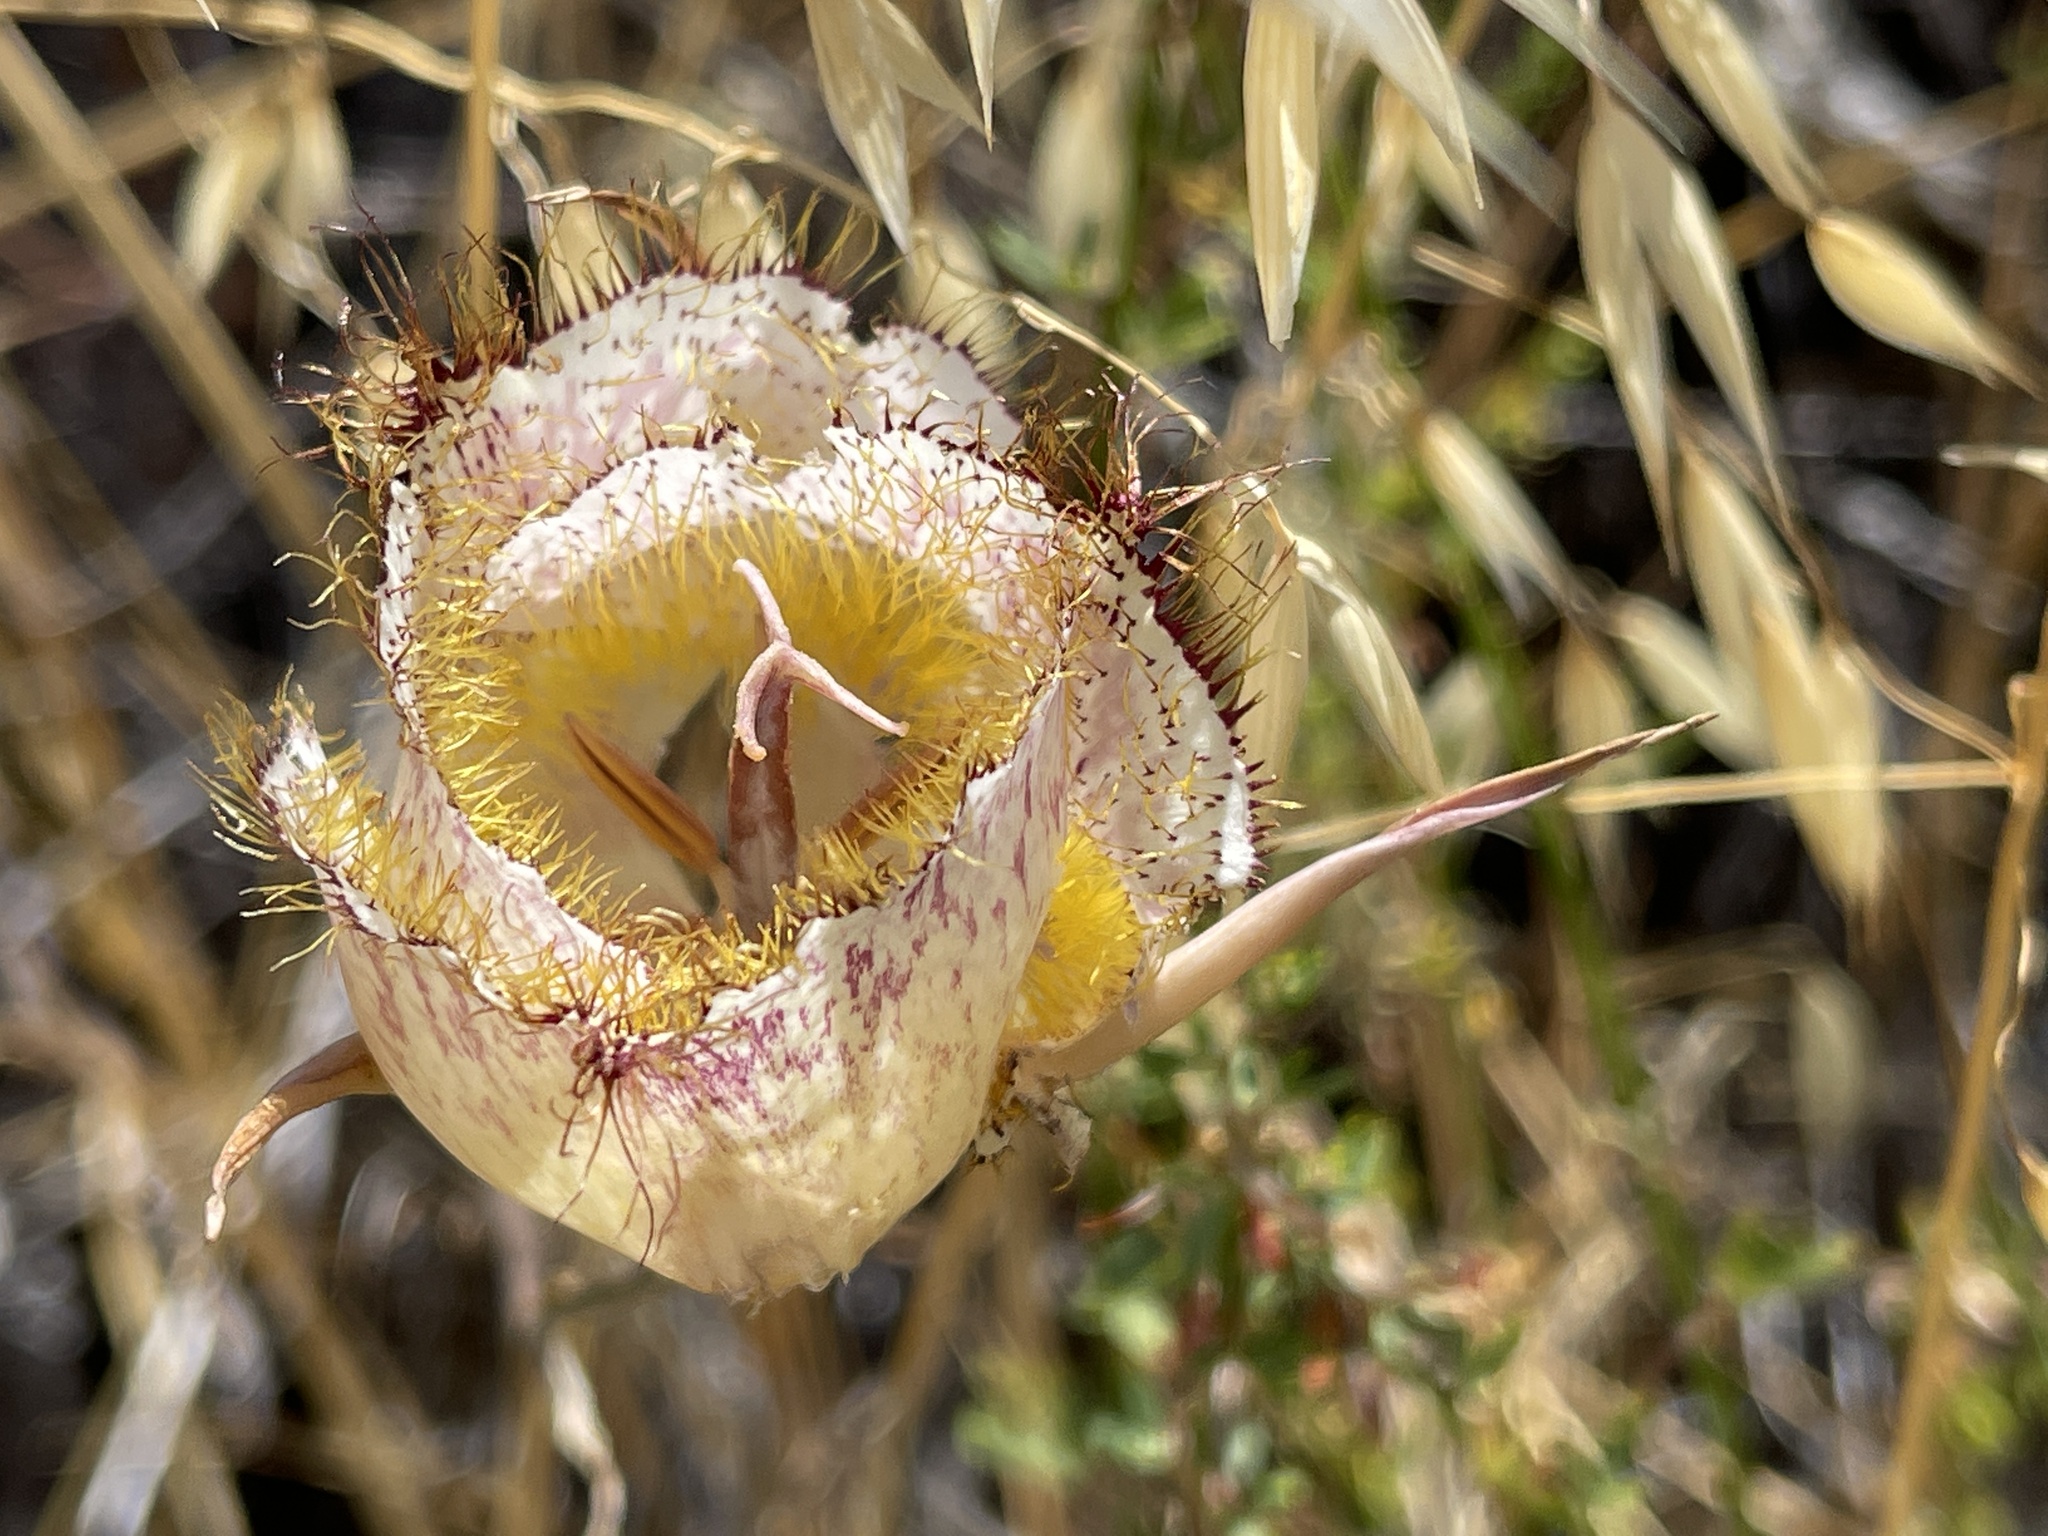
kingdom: Plantae
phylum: Tracheophyta
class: Liliopsida
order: Liliales
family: Liliaceae
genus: Calochortus
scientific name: Calochortus fimbriatus
